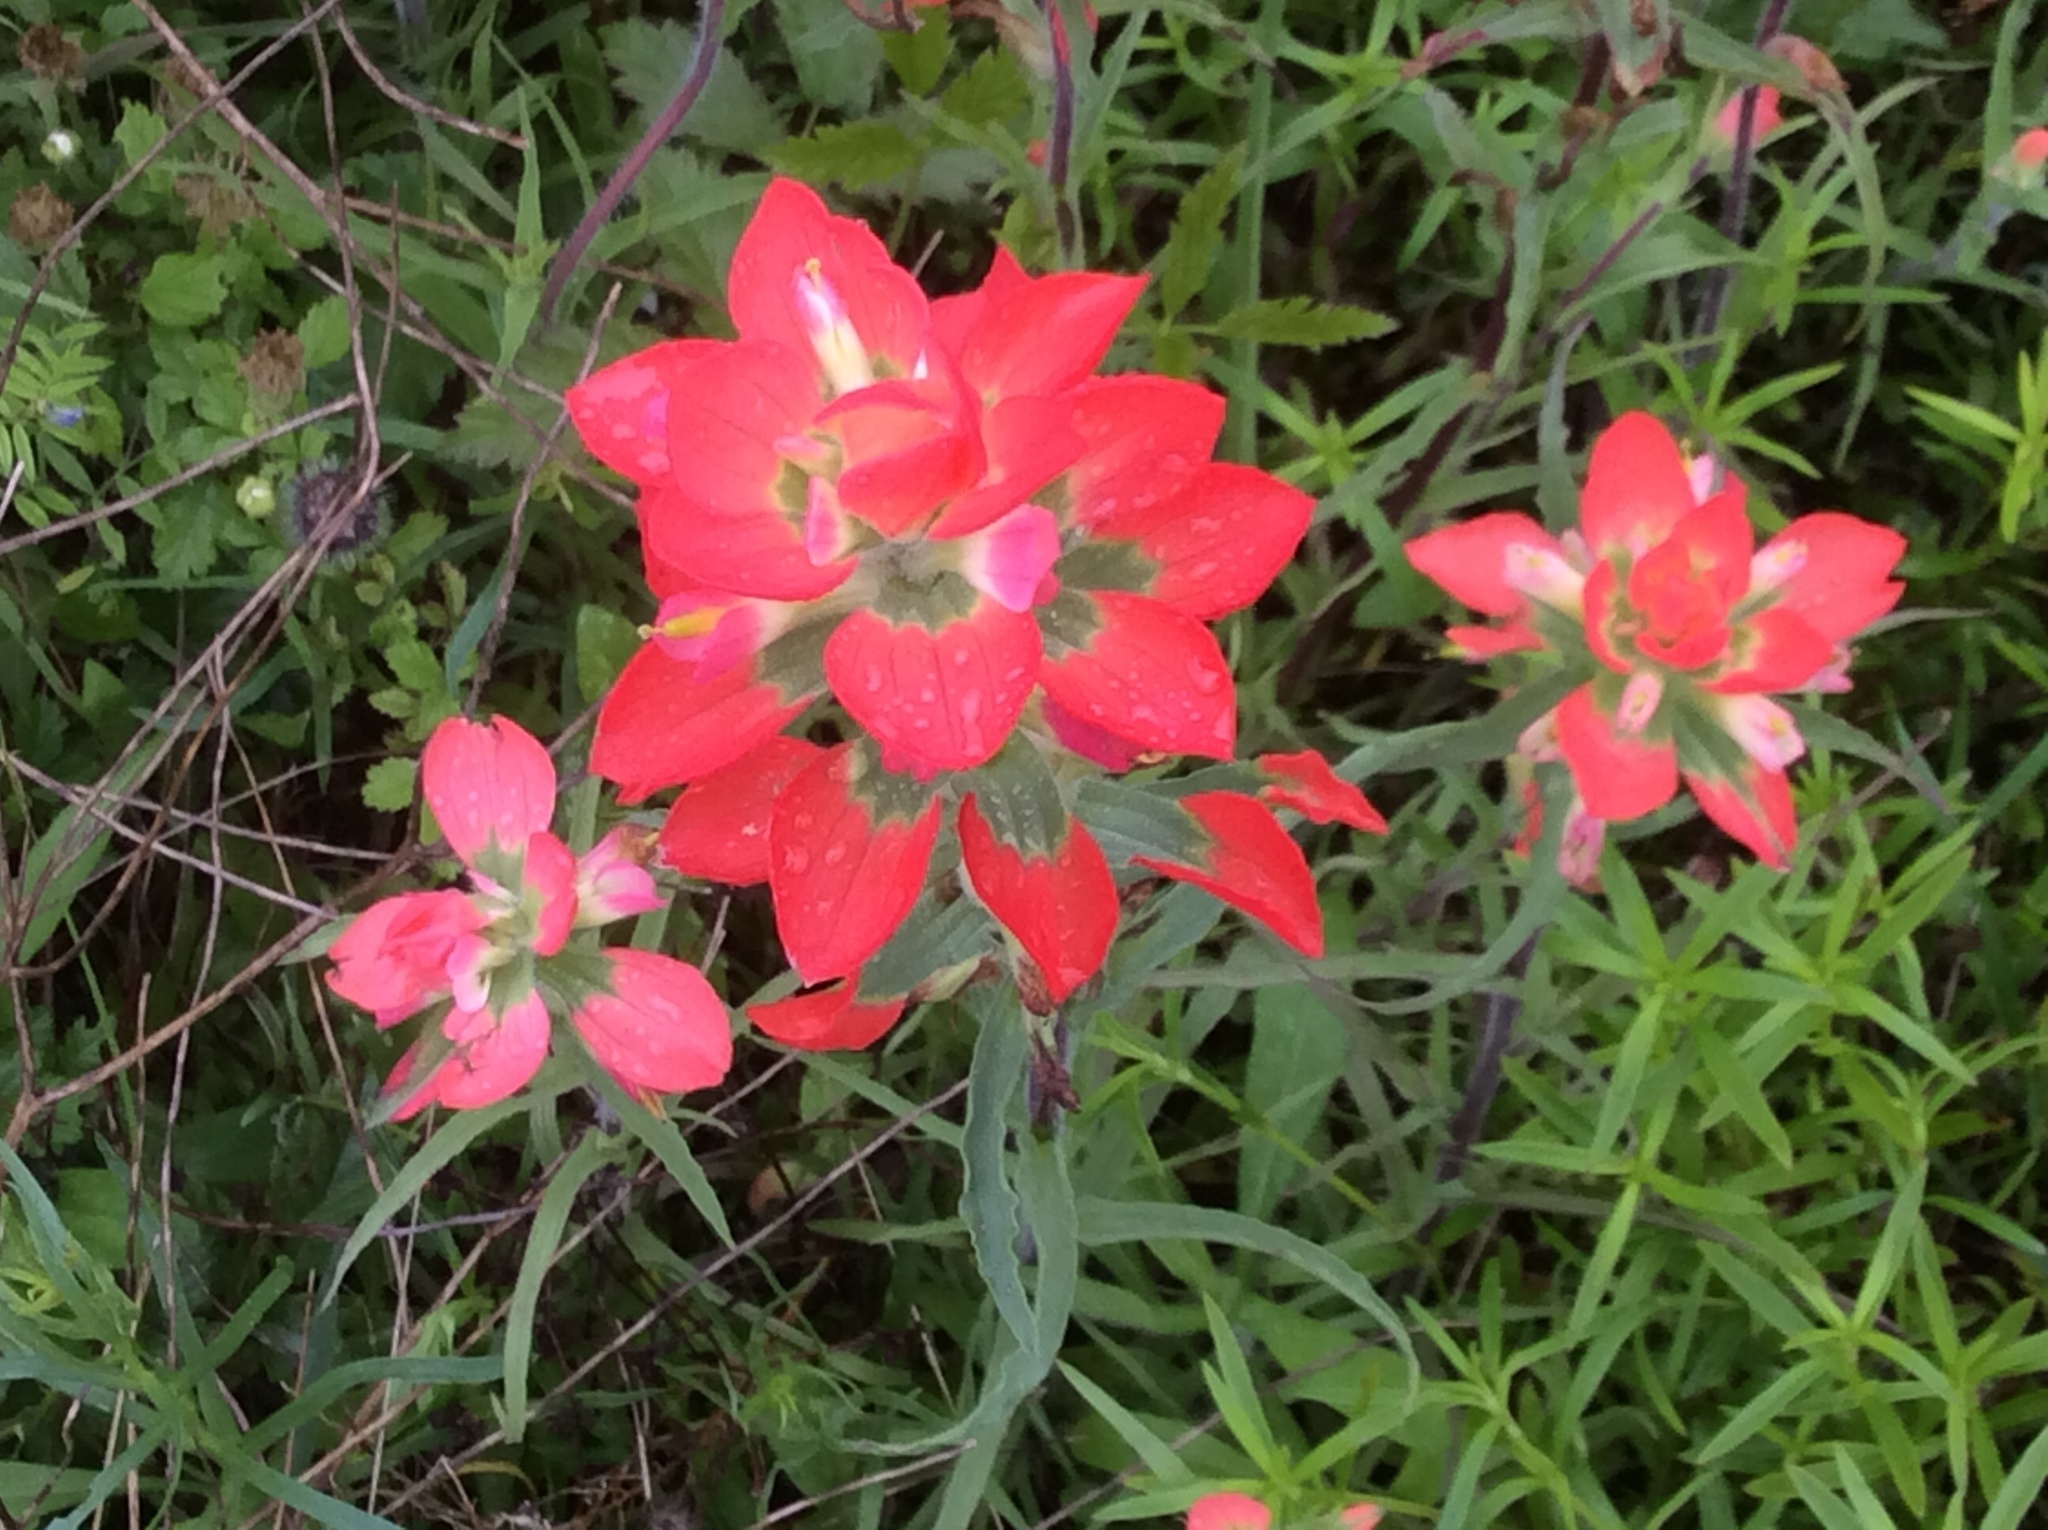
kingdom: Plantae
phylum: Tracheophyta
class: Magnoliopsida
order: Lamiales
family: Orobanchaceae
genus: Castilleja
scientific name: Castilleja indivisa
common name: Texas paintbrush
